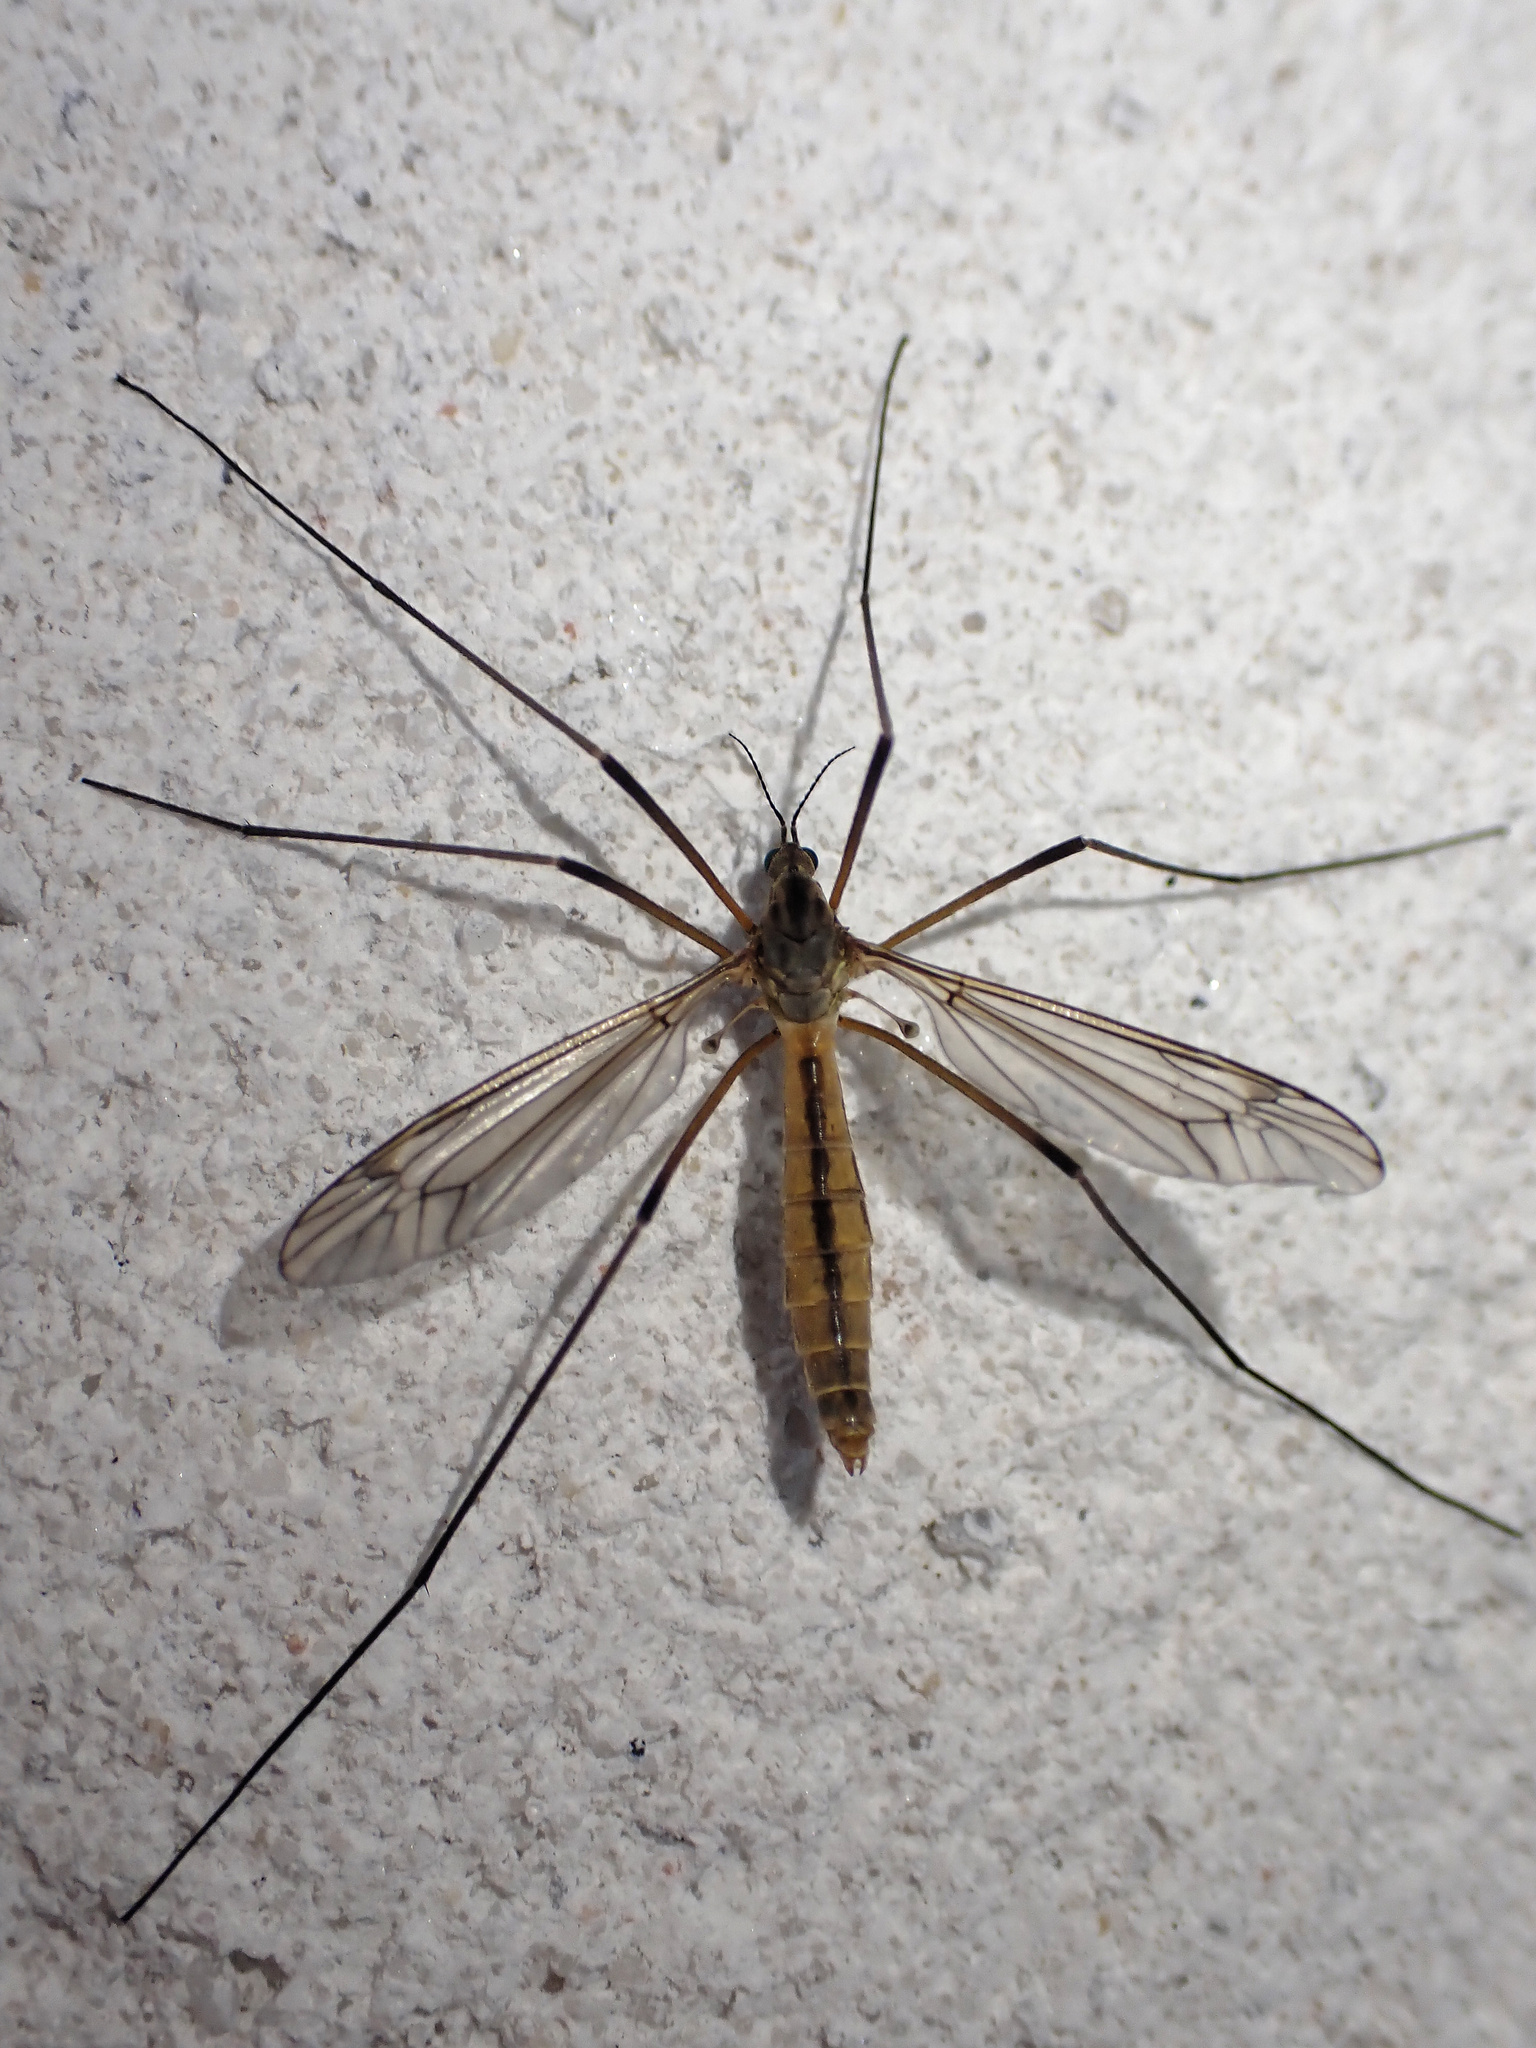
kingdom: Animalia
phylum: Arthropoda
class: Insecta
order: Diptera
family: Tipulidae
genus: Tipula
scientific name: Tipula vernalis
